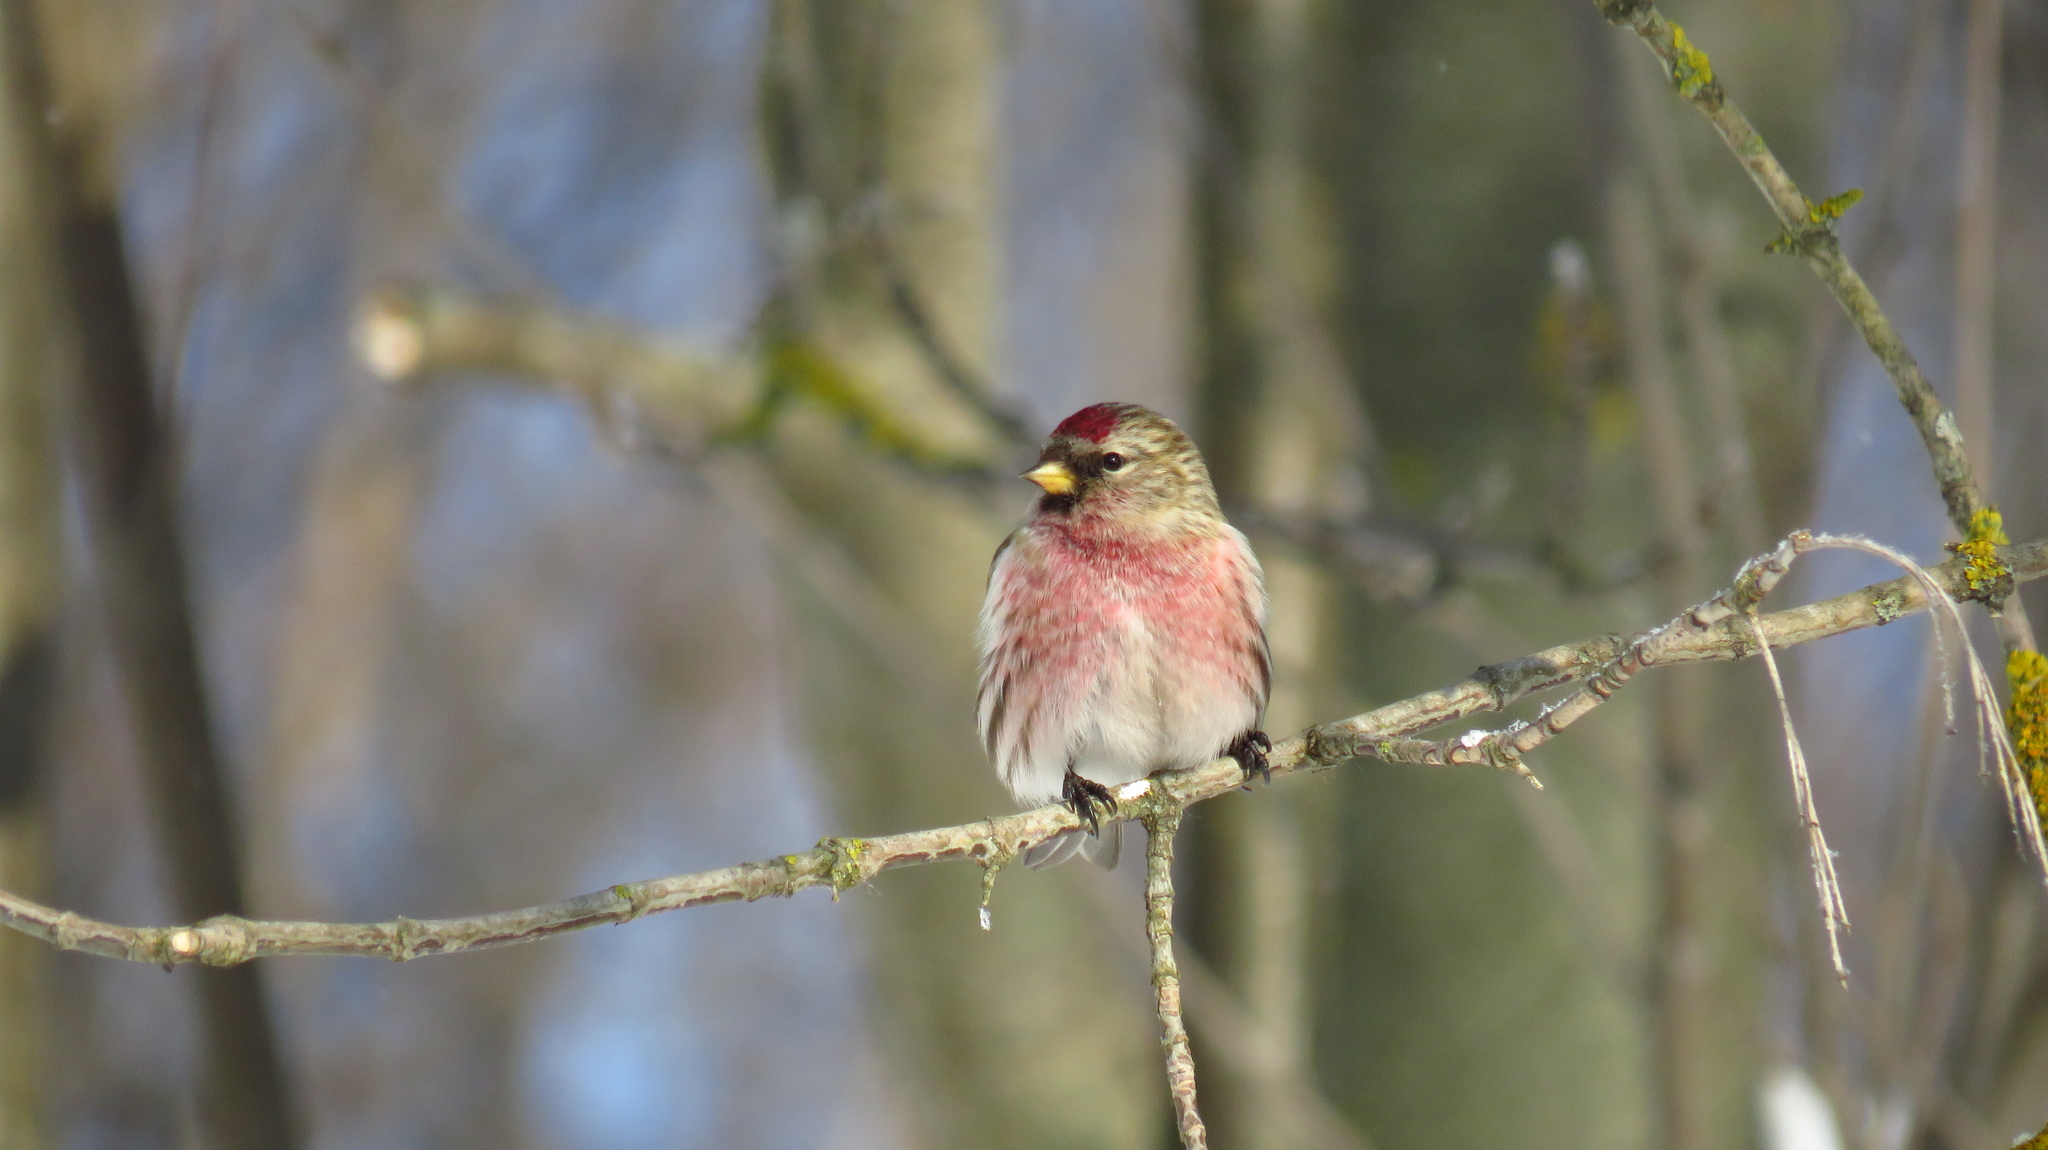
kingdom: Animalia
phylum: Chordata
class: Aves
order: Passeriformes
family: Fringillidae
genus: Acanthis
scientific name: Acanthis flammea
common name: Common redpoll
